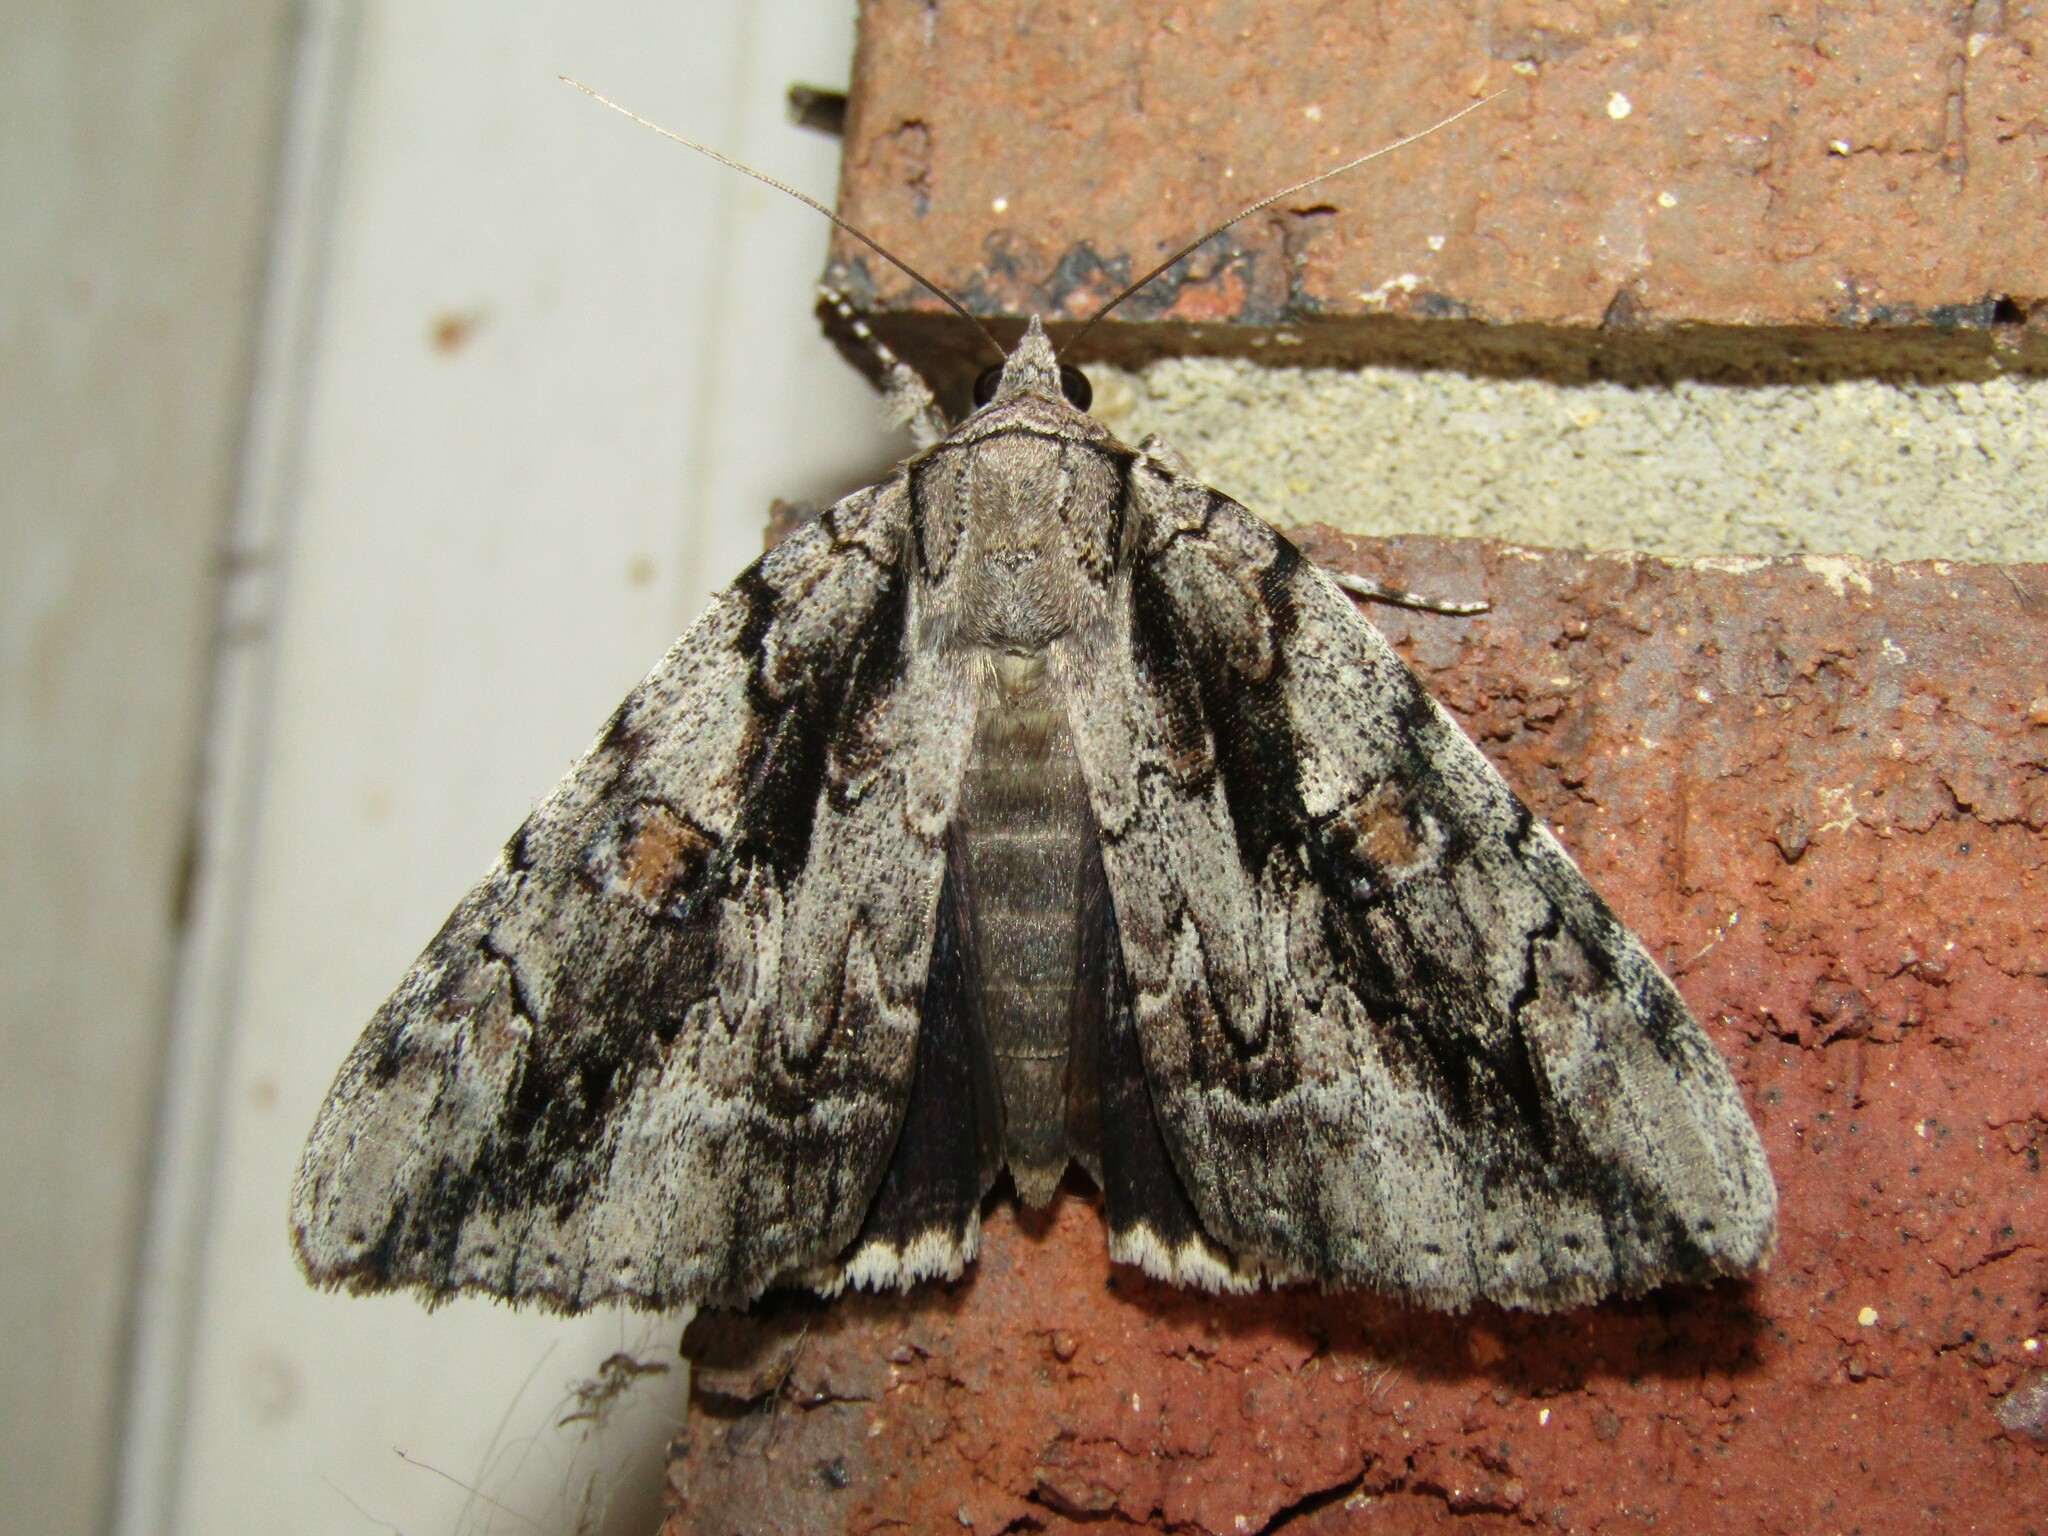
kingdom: Animalia
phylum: Arthropoda
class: Insecta
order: Lepidoptera
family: Erebidae
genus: Catocala
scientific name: Catocala flebilis
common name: Mournful underwing
